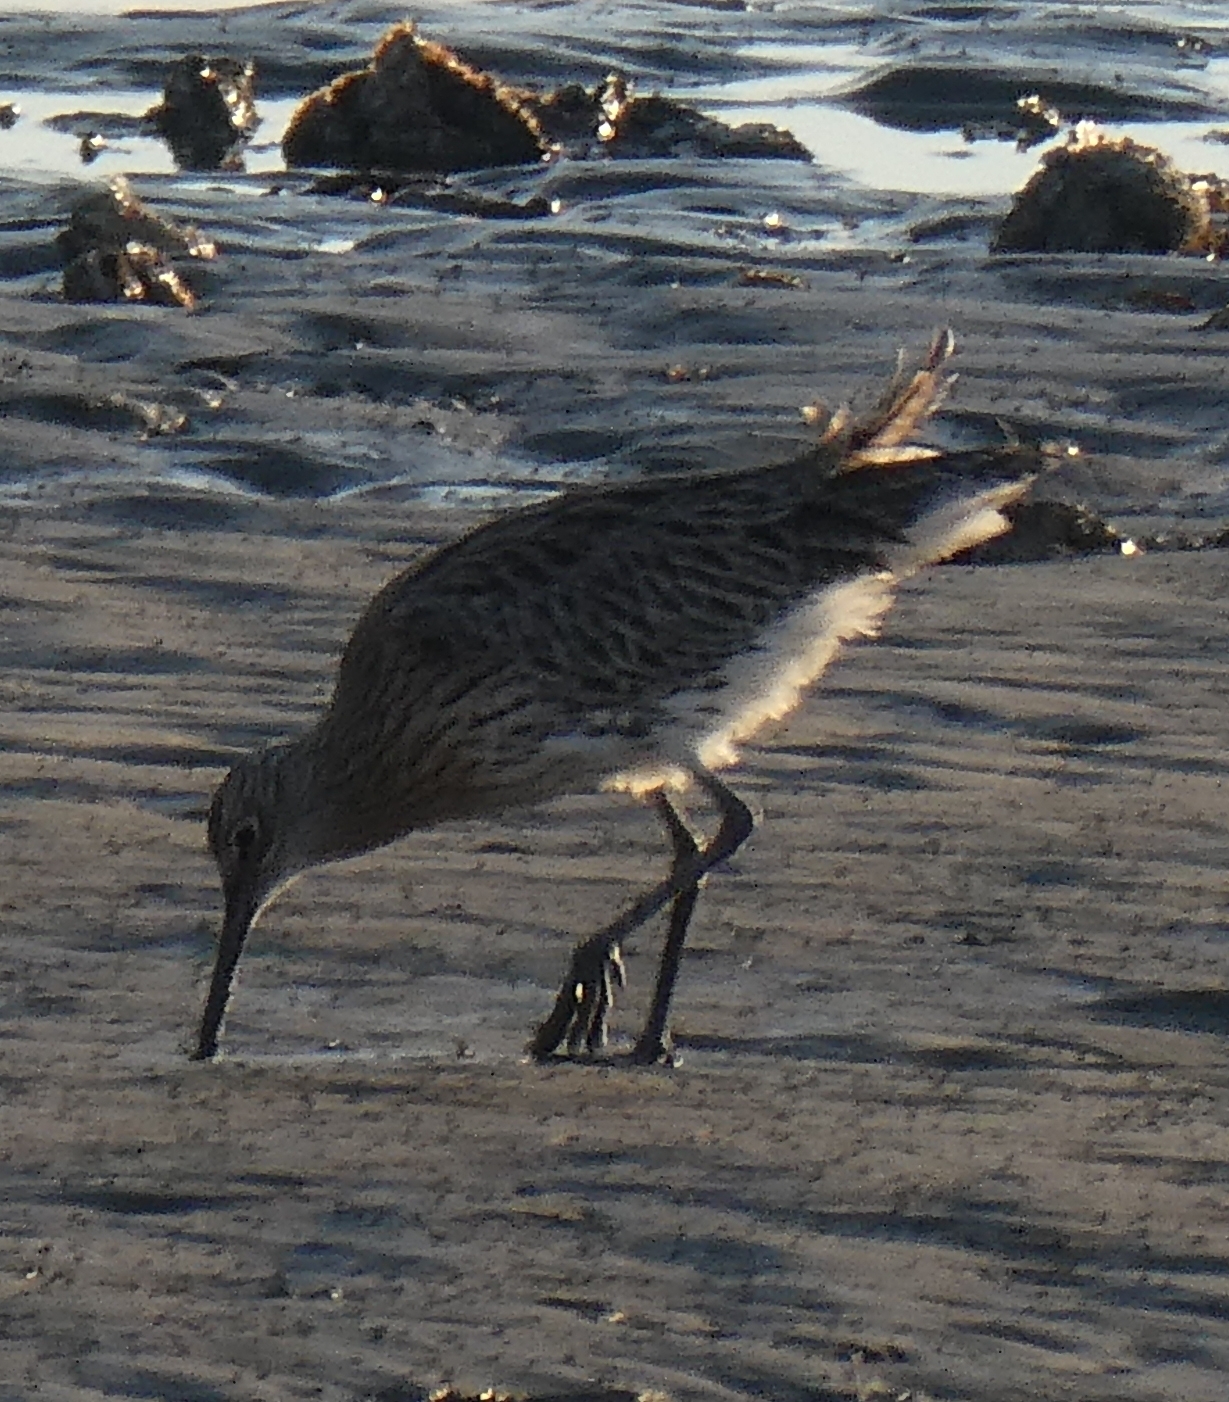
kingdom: Animalia
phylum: Chordata
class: Aves
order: Charadriiformes
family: Scolopacidae
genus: Numenius
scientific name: Numenius arquata
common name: Eurasian curlew
